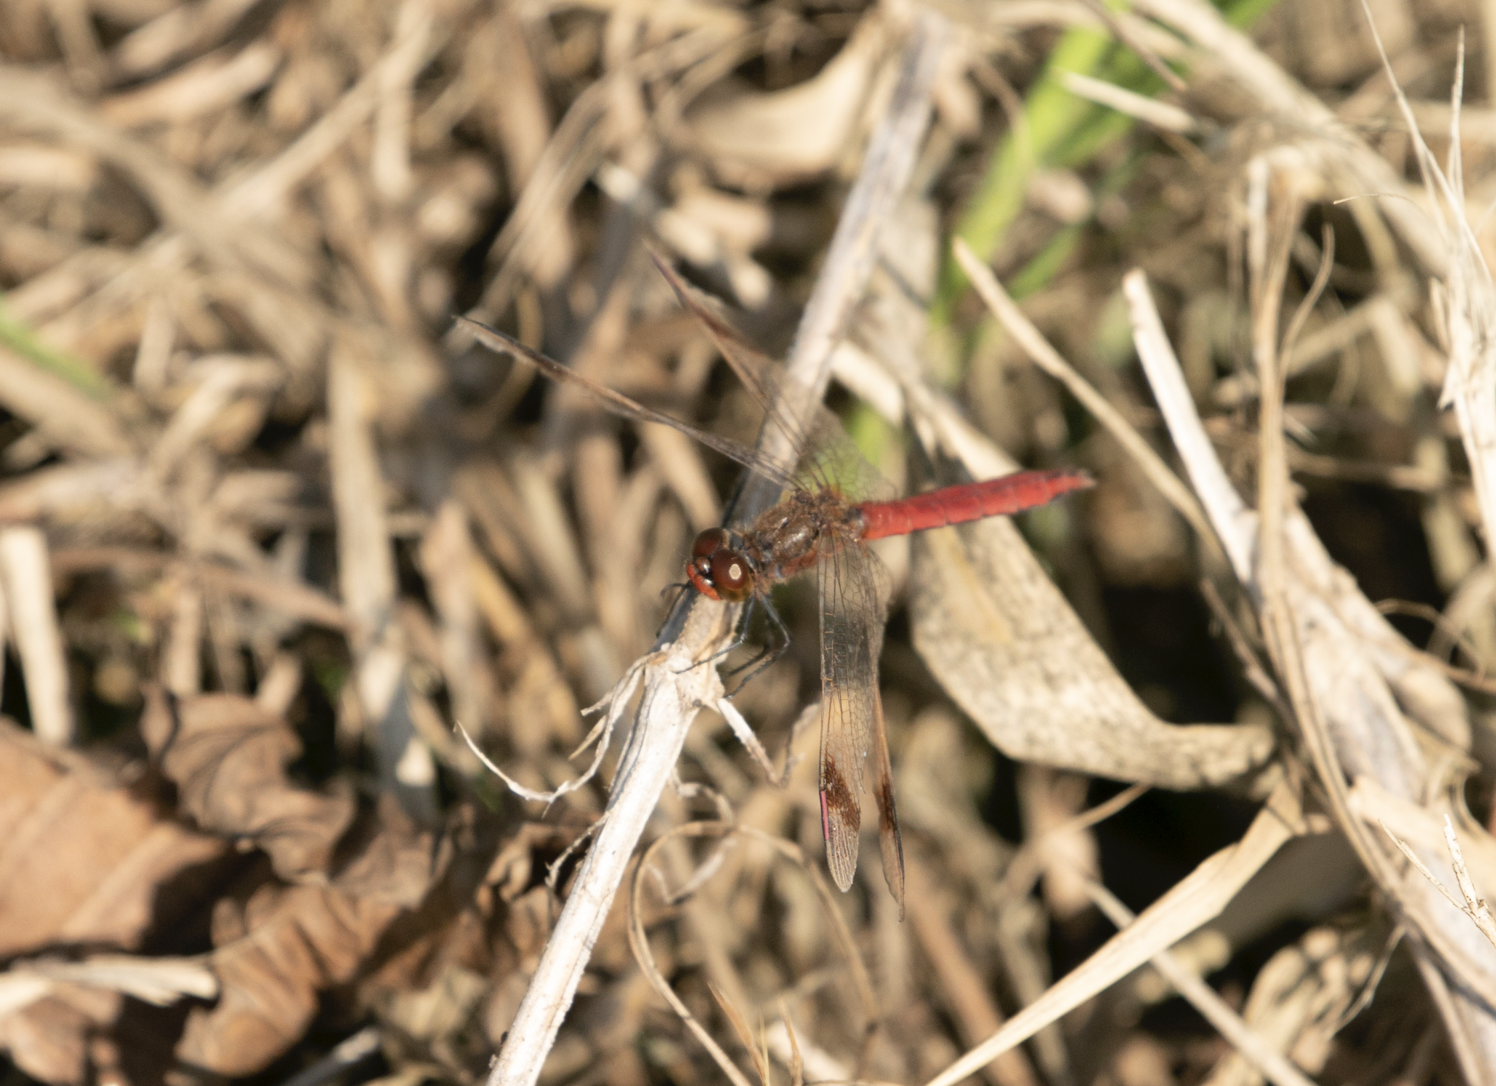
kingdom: Animalia
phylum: Arthropoda
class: Insecta
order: Odonata
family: Libellulidae
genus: Sympetrum
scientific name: Sympetrum pedemontanum
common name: Banded darter
